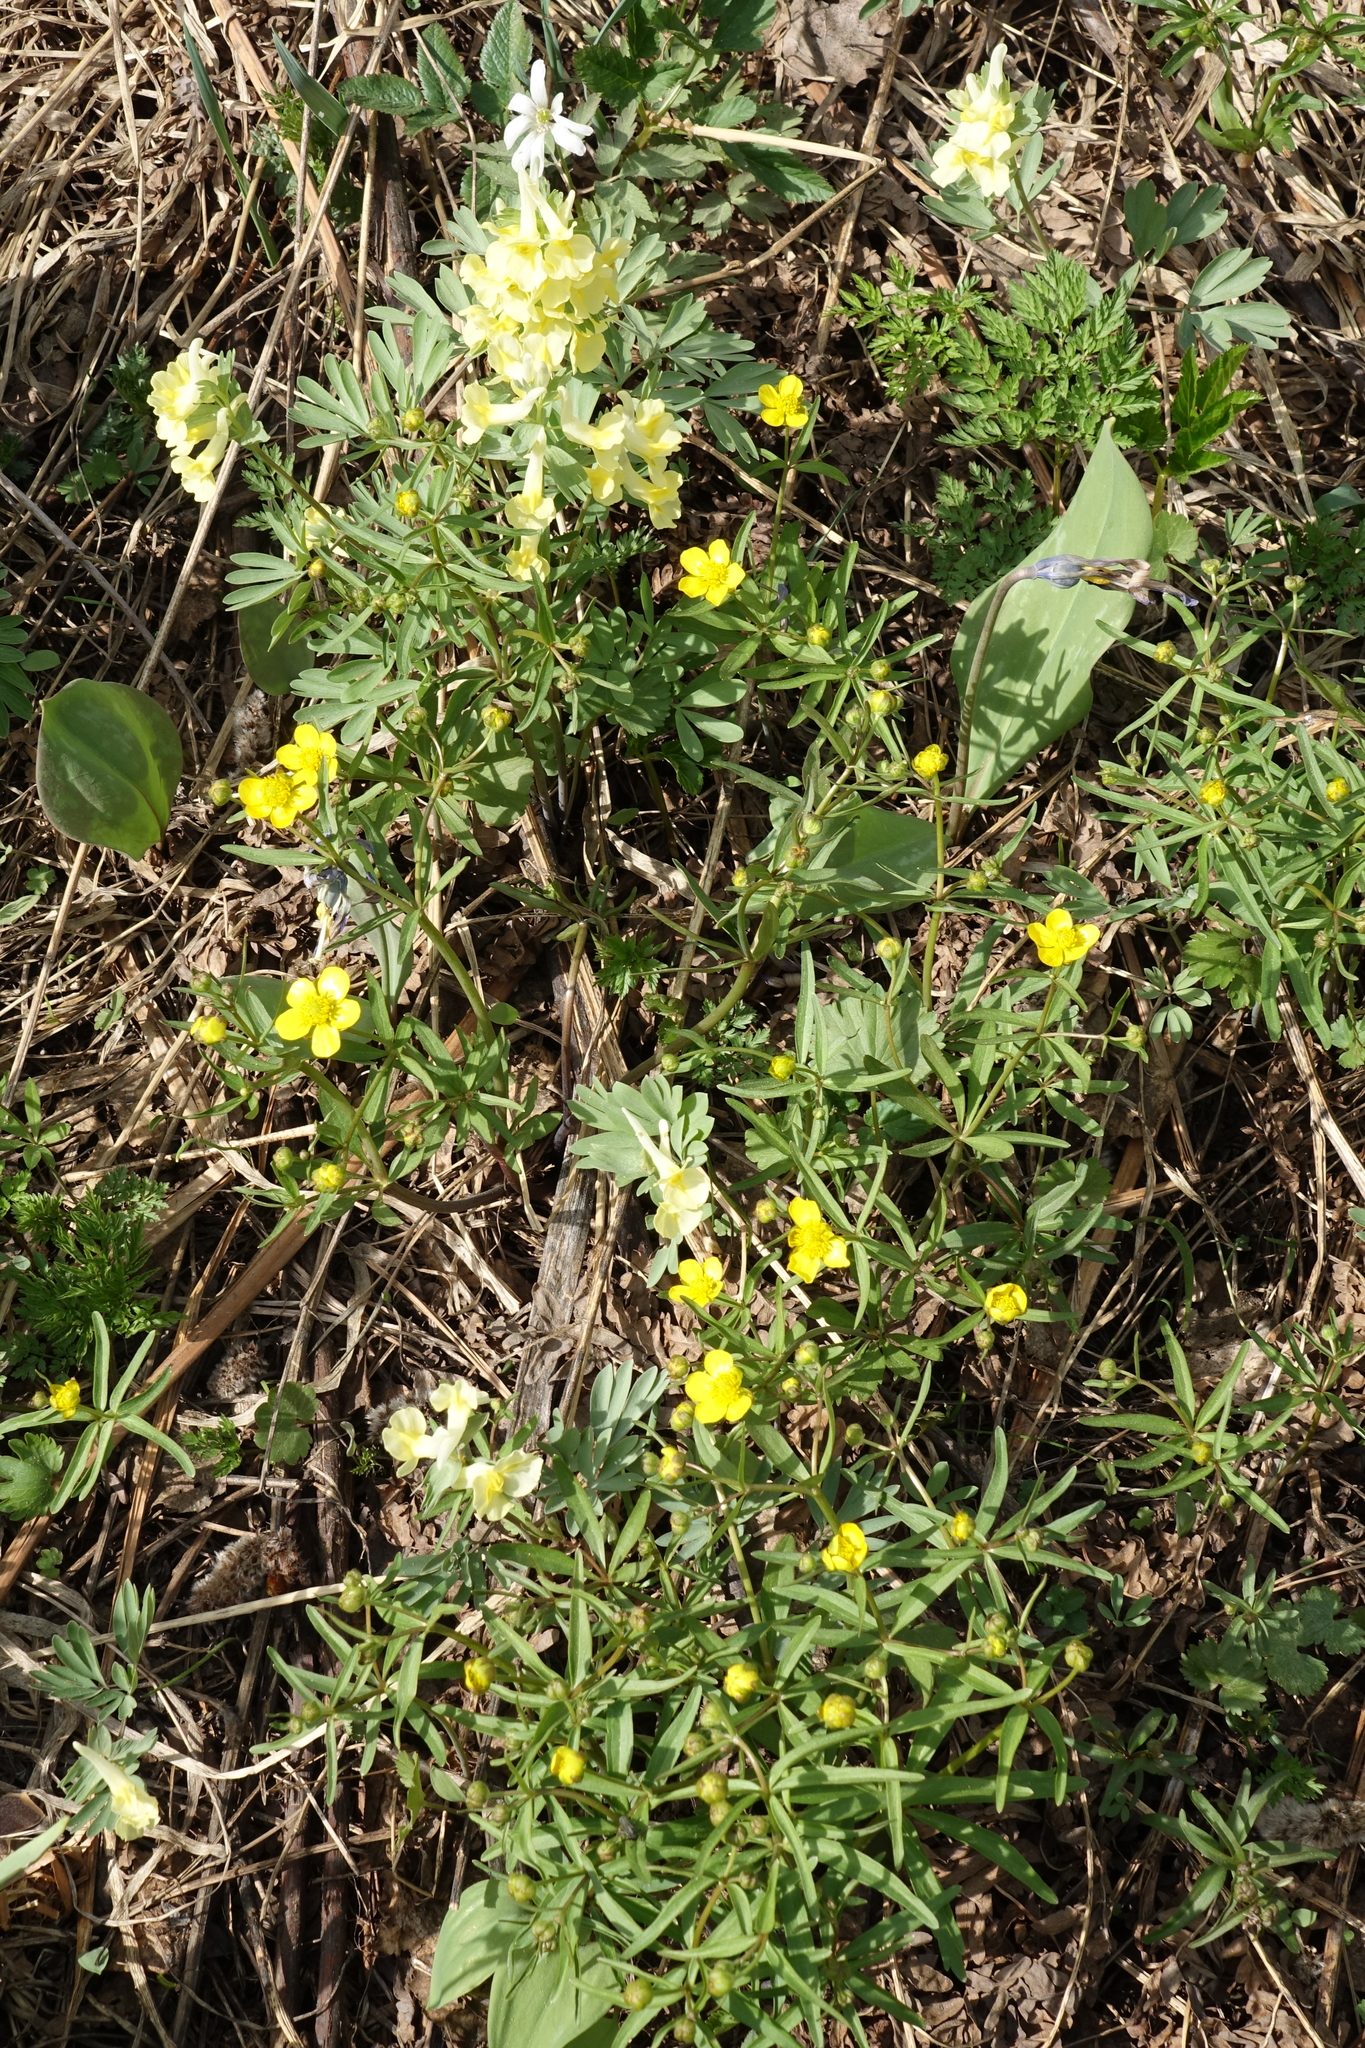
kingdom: Plantae
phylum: Tracheophyta
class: Magnoliopsida
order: Ranunculales
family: Ranunculaceae
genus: Ranunculus
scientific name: Ranunculus monophyllus
